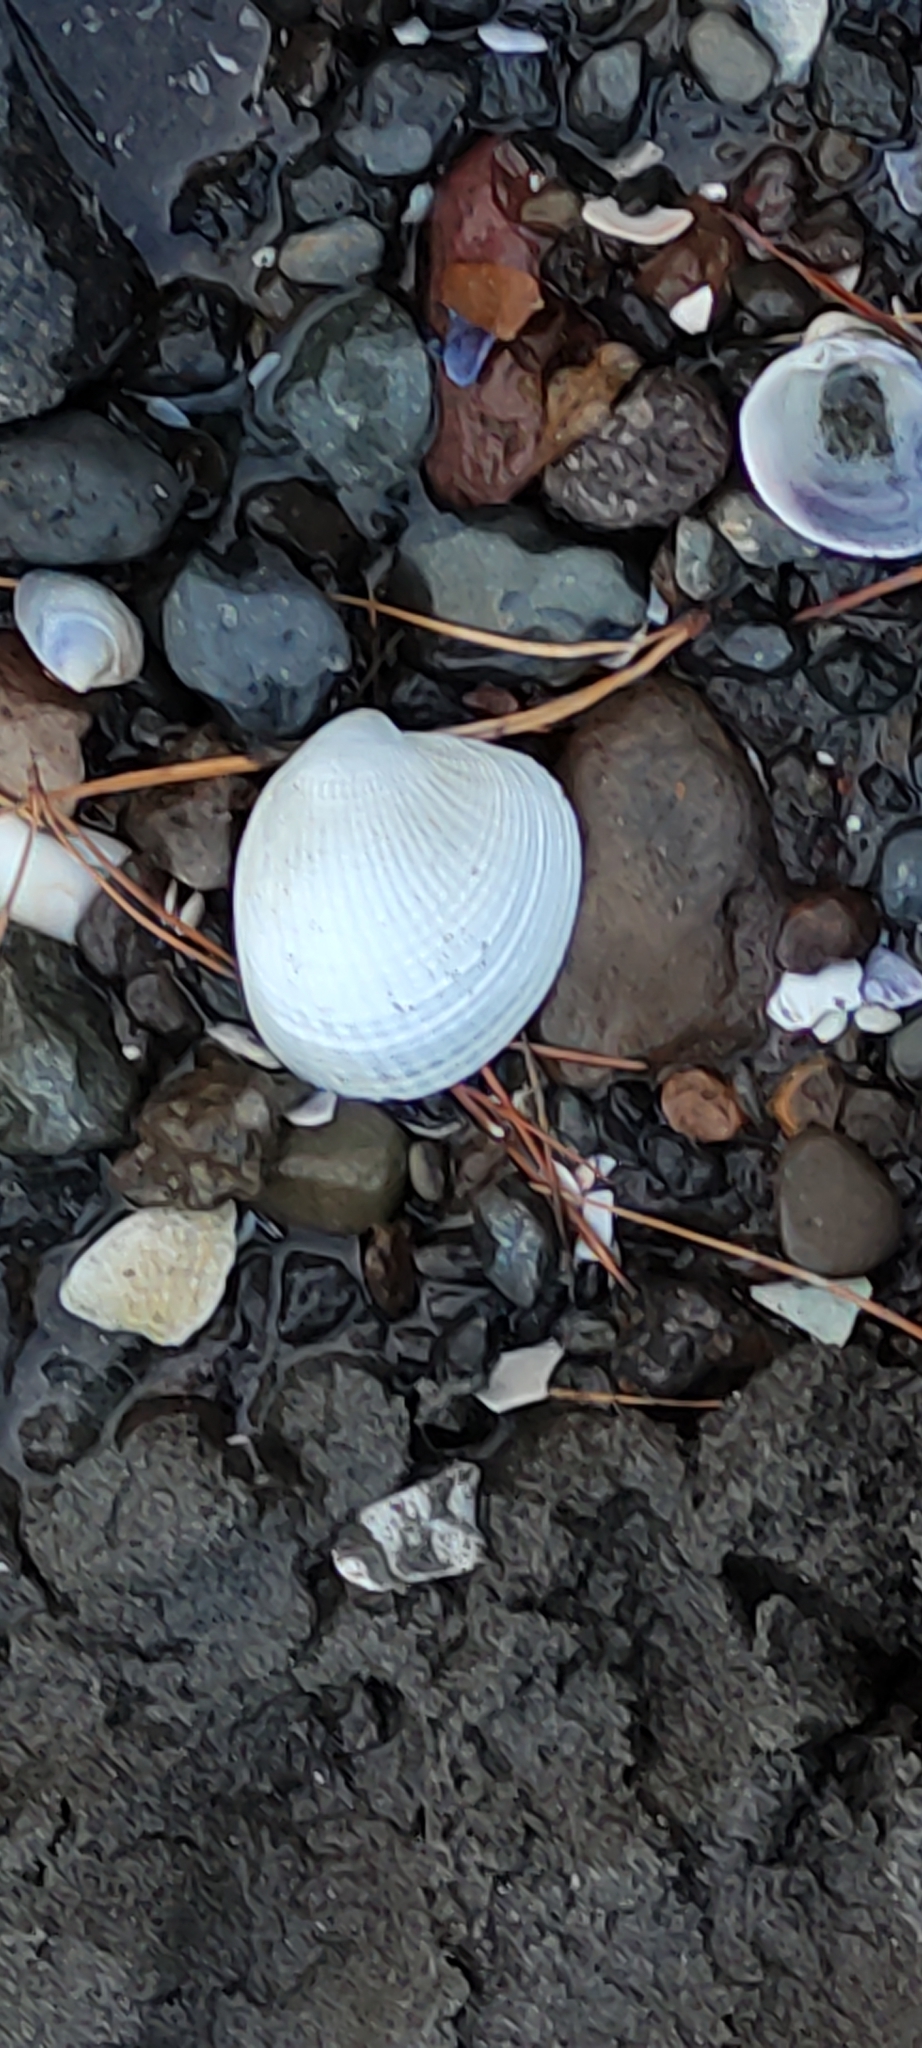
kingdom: Animalia
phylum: Mollusca
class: Bivalvia
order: Venerida
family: Veneridae
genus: Austrovenus
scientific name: Austrovenus stutchburyi
